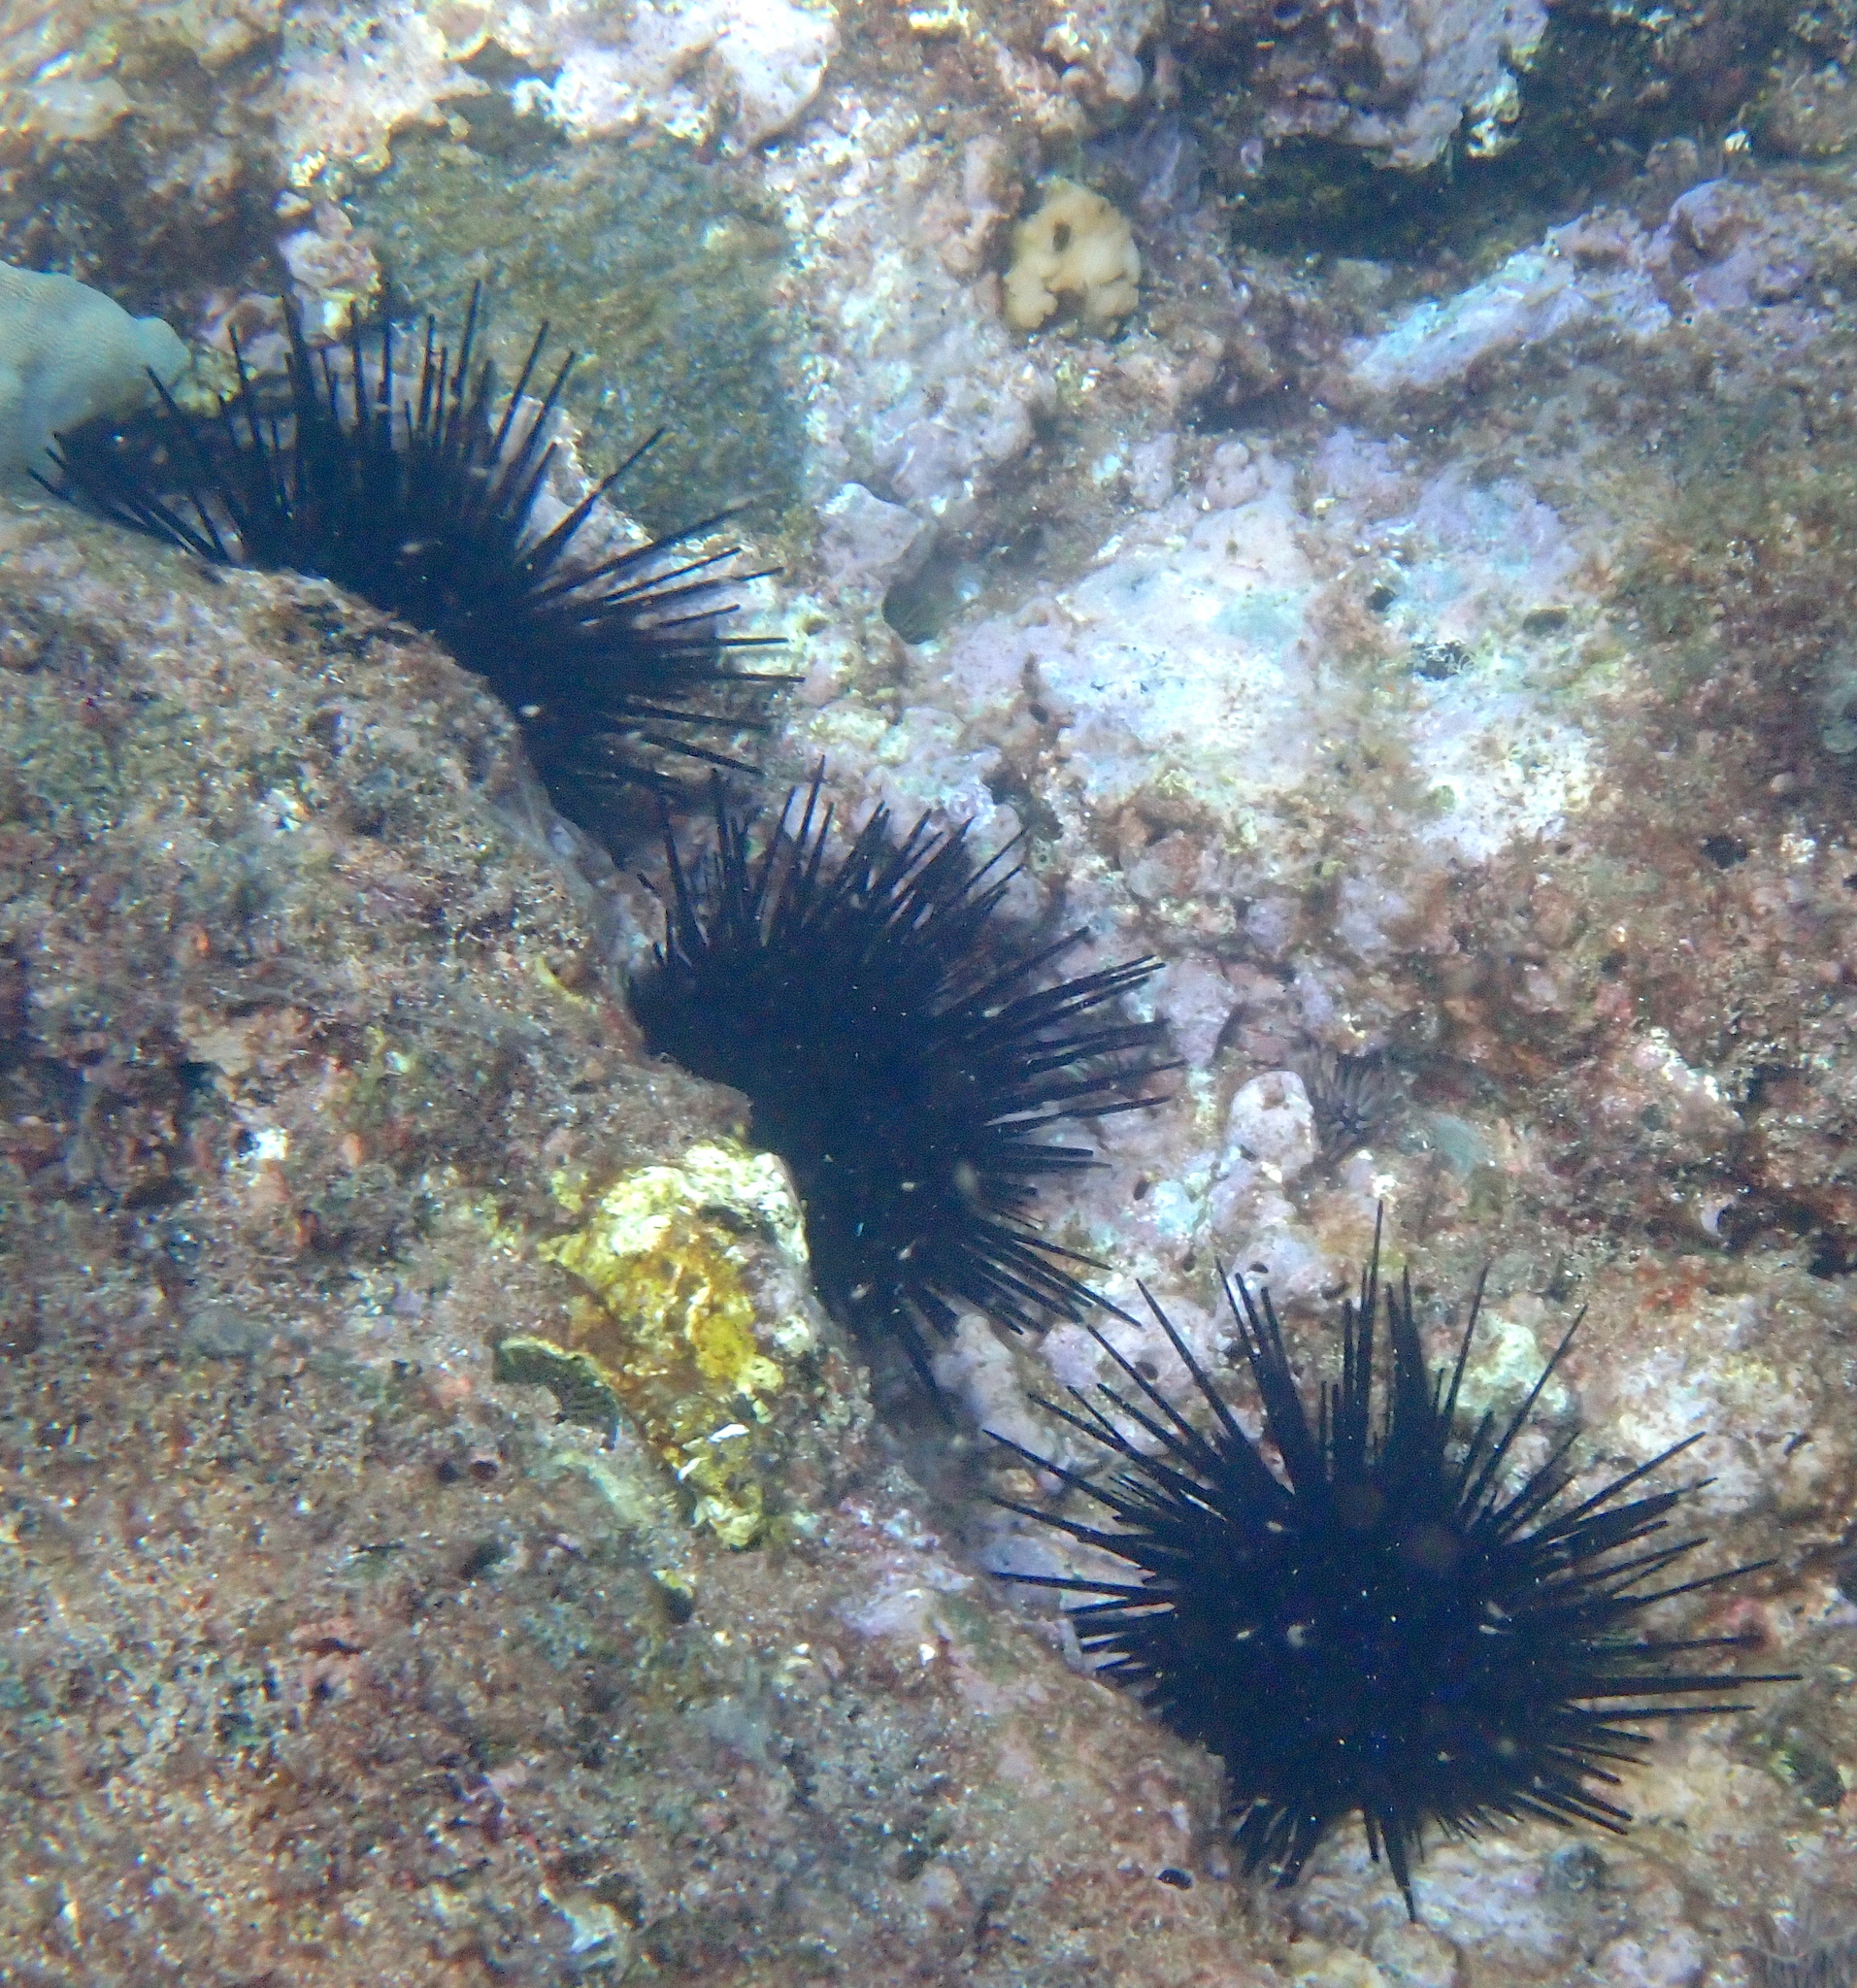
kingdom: Animalia
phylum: Echinodermata
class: Echinoidea
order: Diadematoida
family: Diadematidae
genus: Echinothrix
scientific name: Echinothrix diadema
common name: Schwarzer diademseeigel
